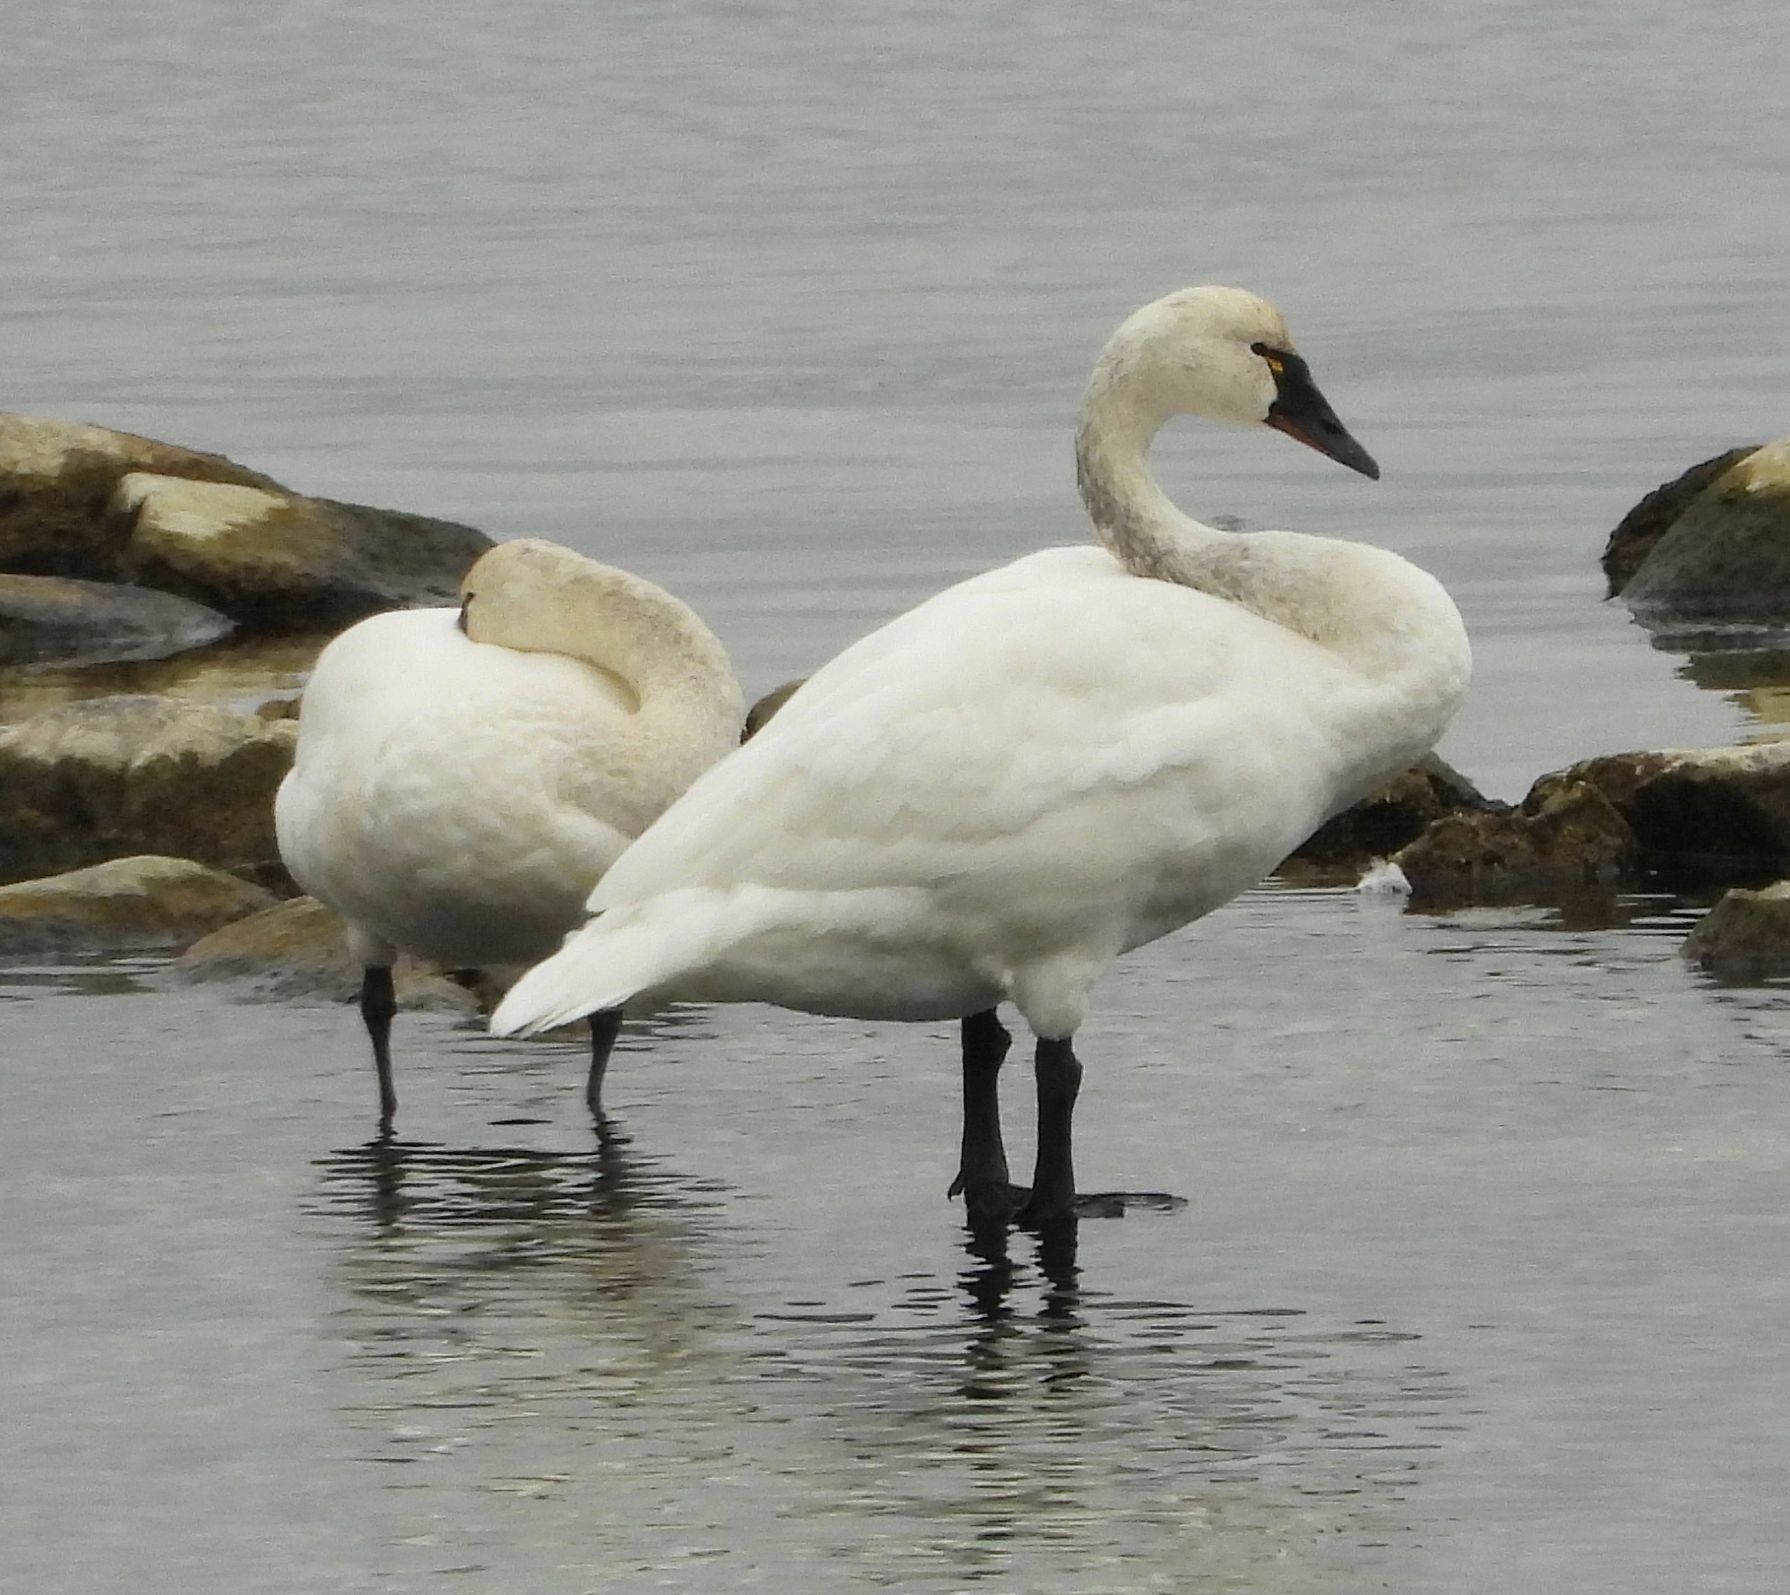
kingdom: Animalia
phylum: Chordata
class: Aves
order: Anseriformes
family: Anatidae
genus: Cygnus
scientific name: Cygnus columbianus
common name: Tundra swan
